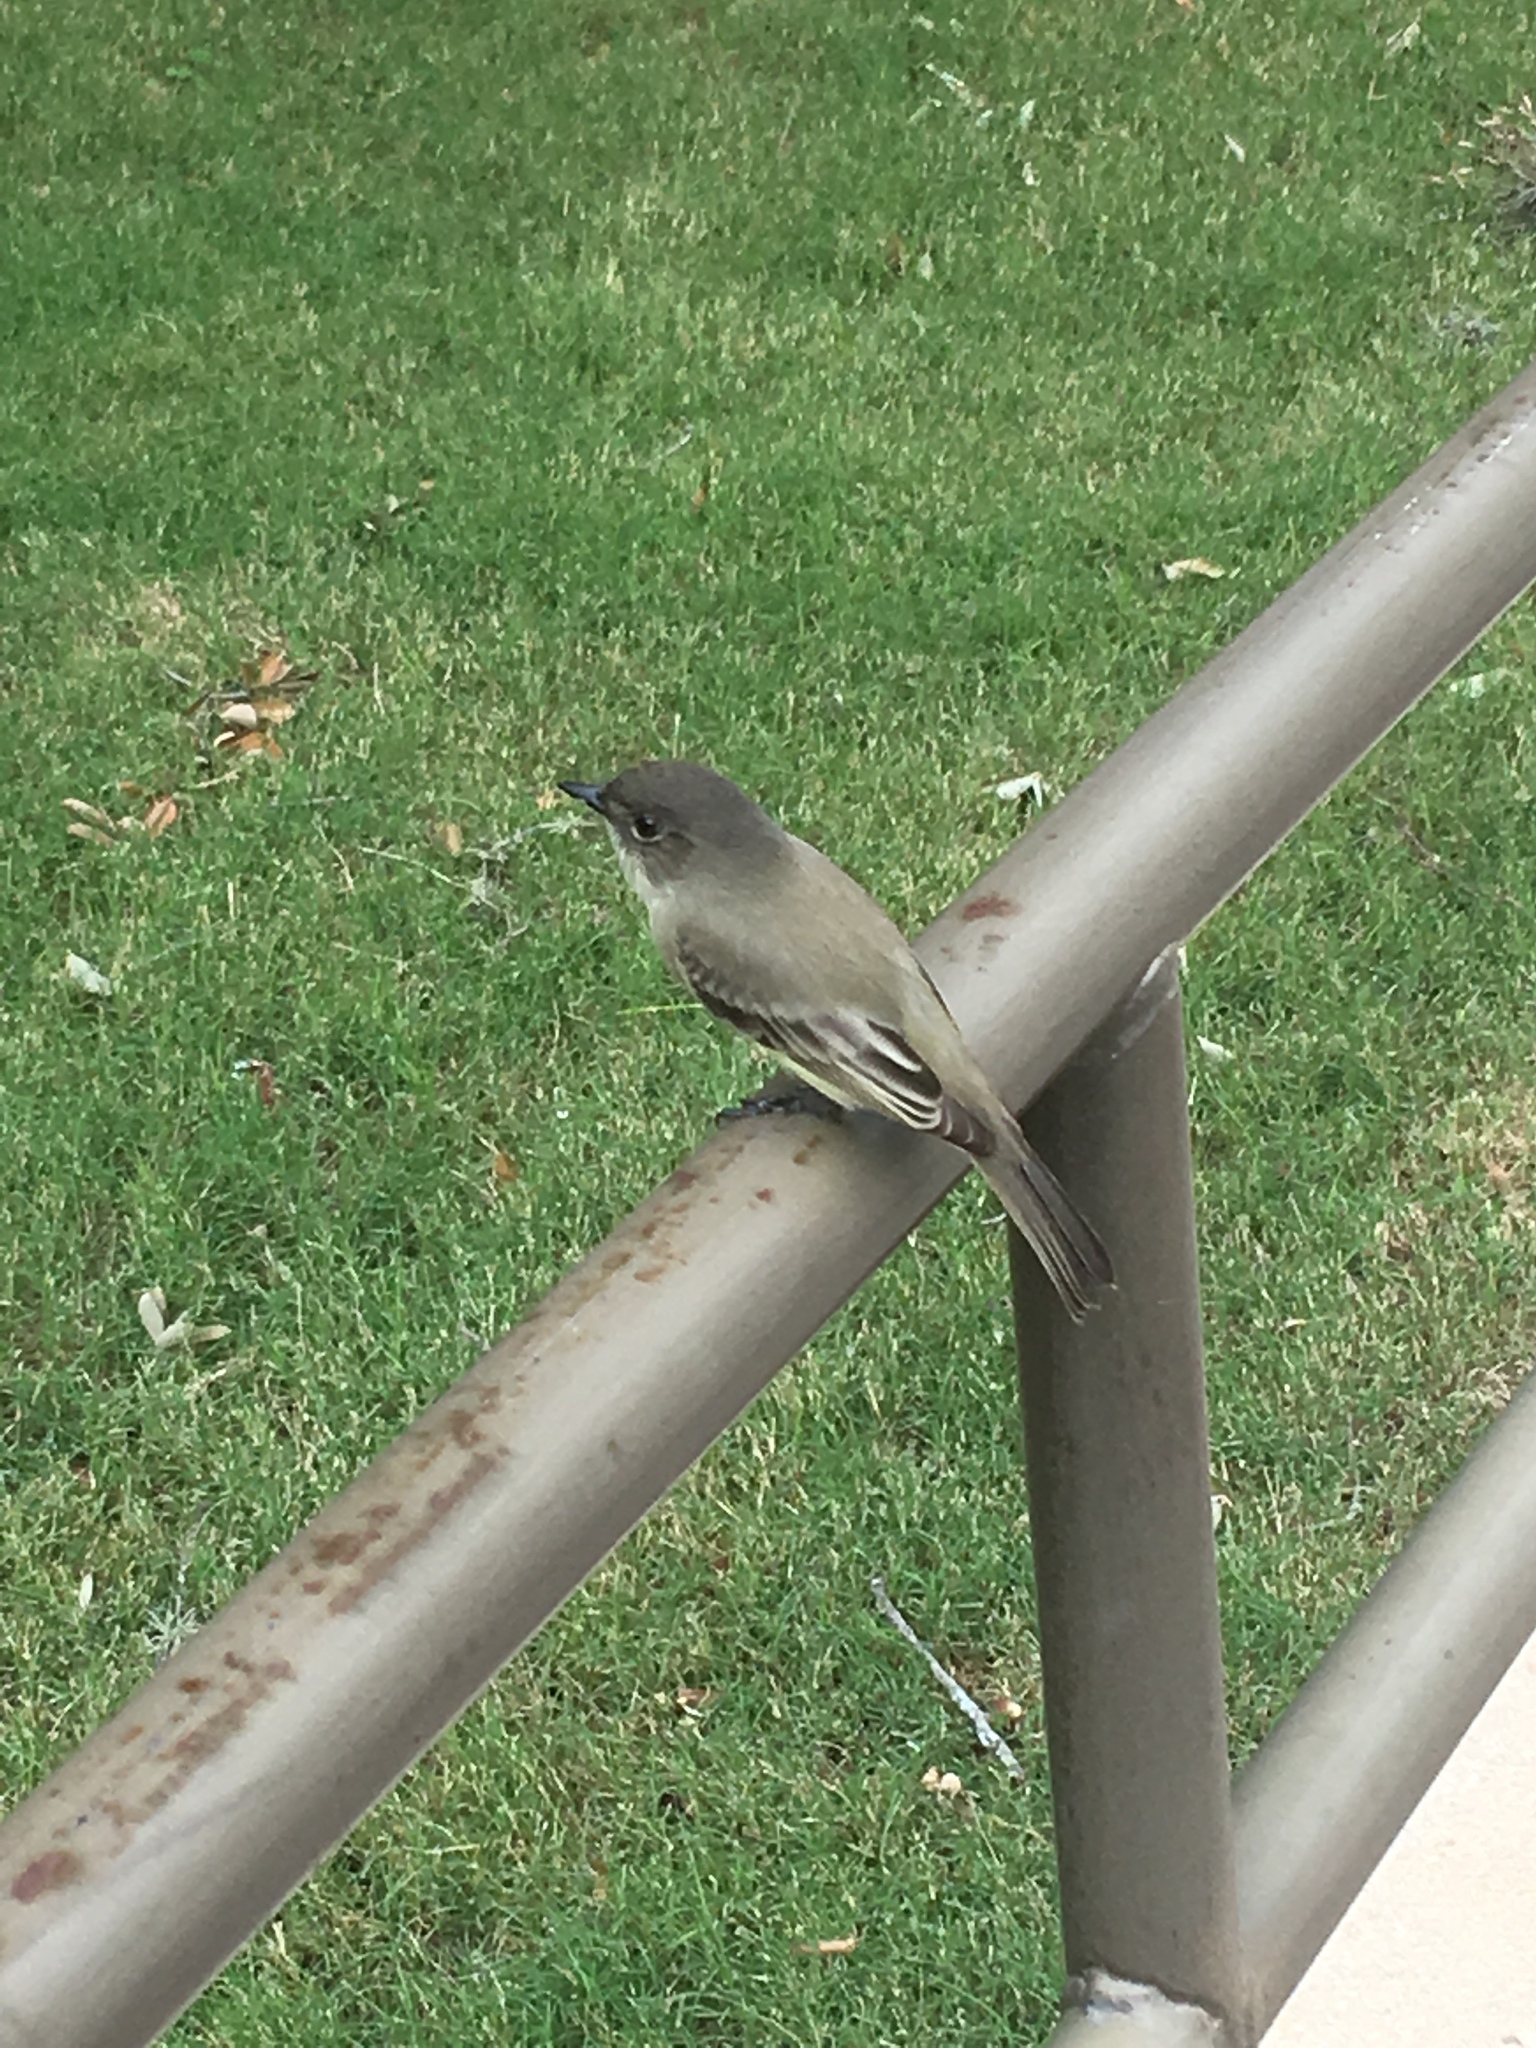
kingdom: Animalia
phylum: Chordata
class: Aves
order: Passeriformes
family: Tyrannidae
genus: Sayornis
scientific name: Sayornis phoebe
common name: Eastern phoebe
